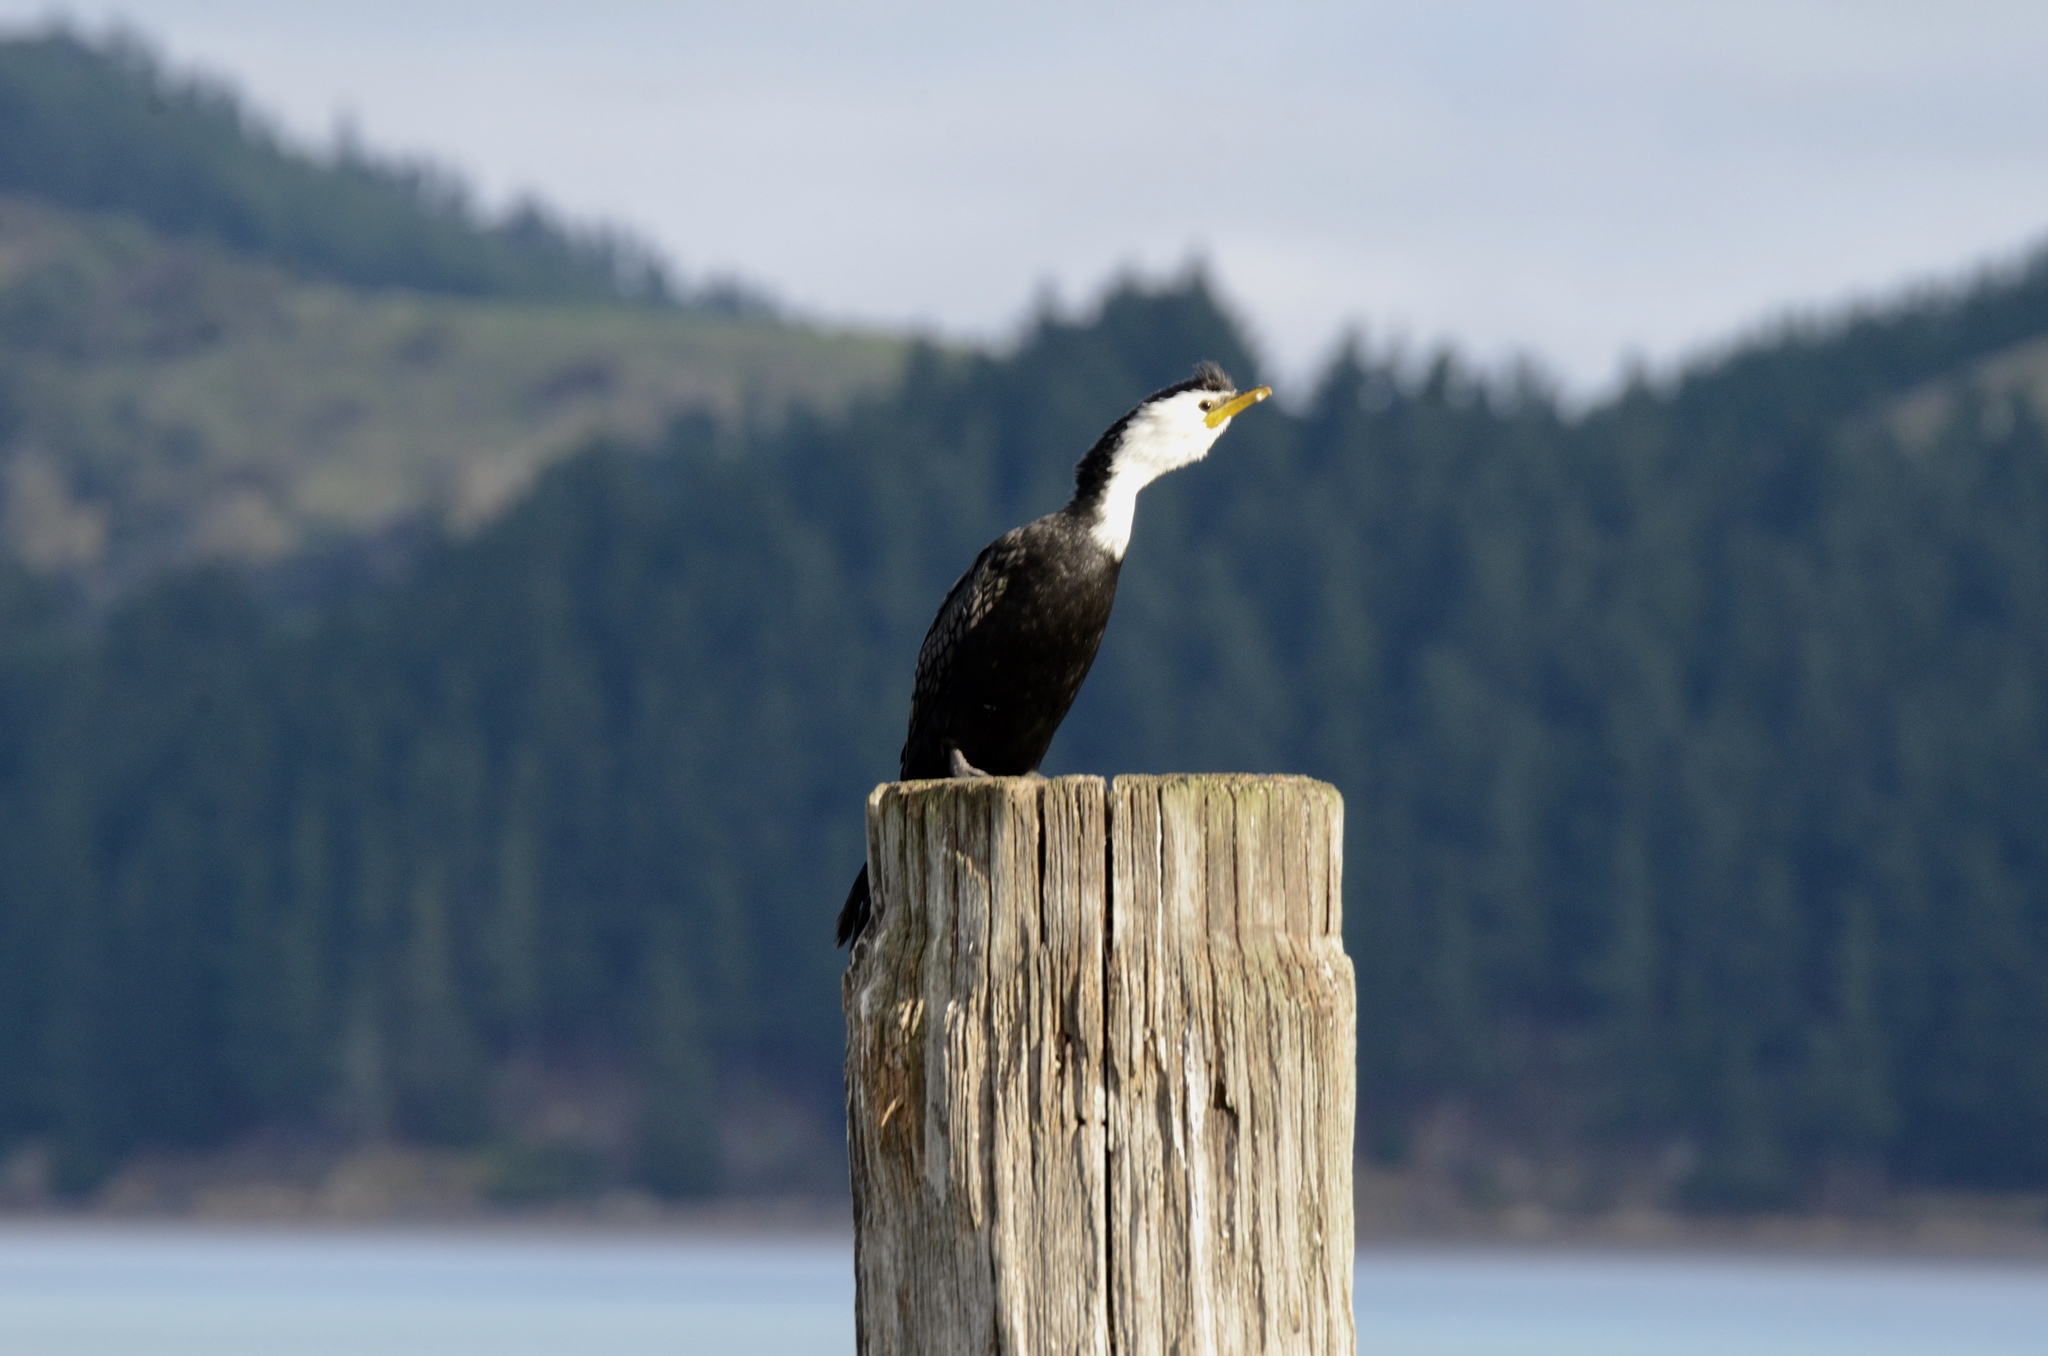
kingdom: Animalia
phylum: Chordata
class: Aves
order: Suliformes
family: Phalacrocoracidae
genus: Microcarbo
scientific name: Microcarbo melanoleucos
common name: Little pied cormorant
